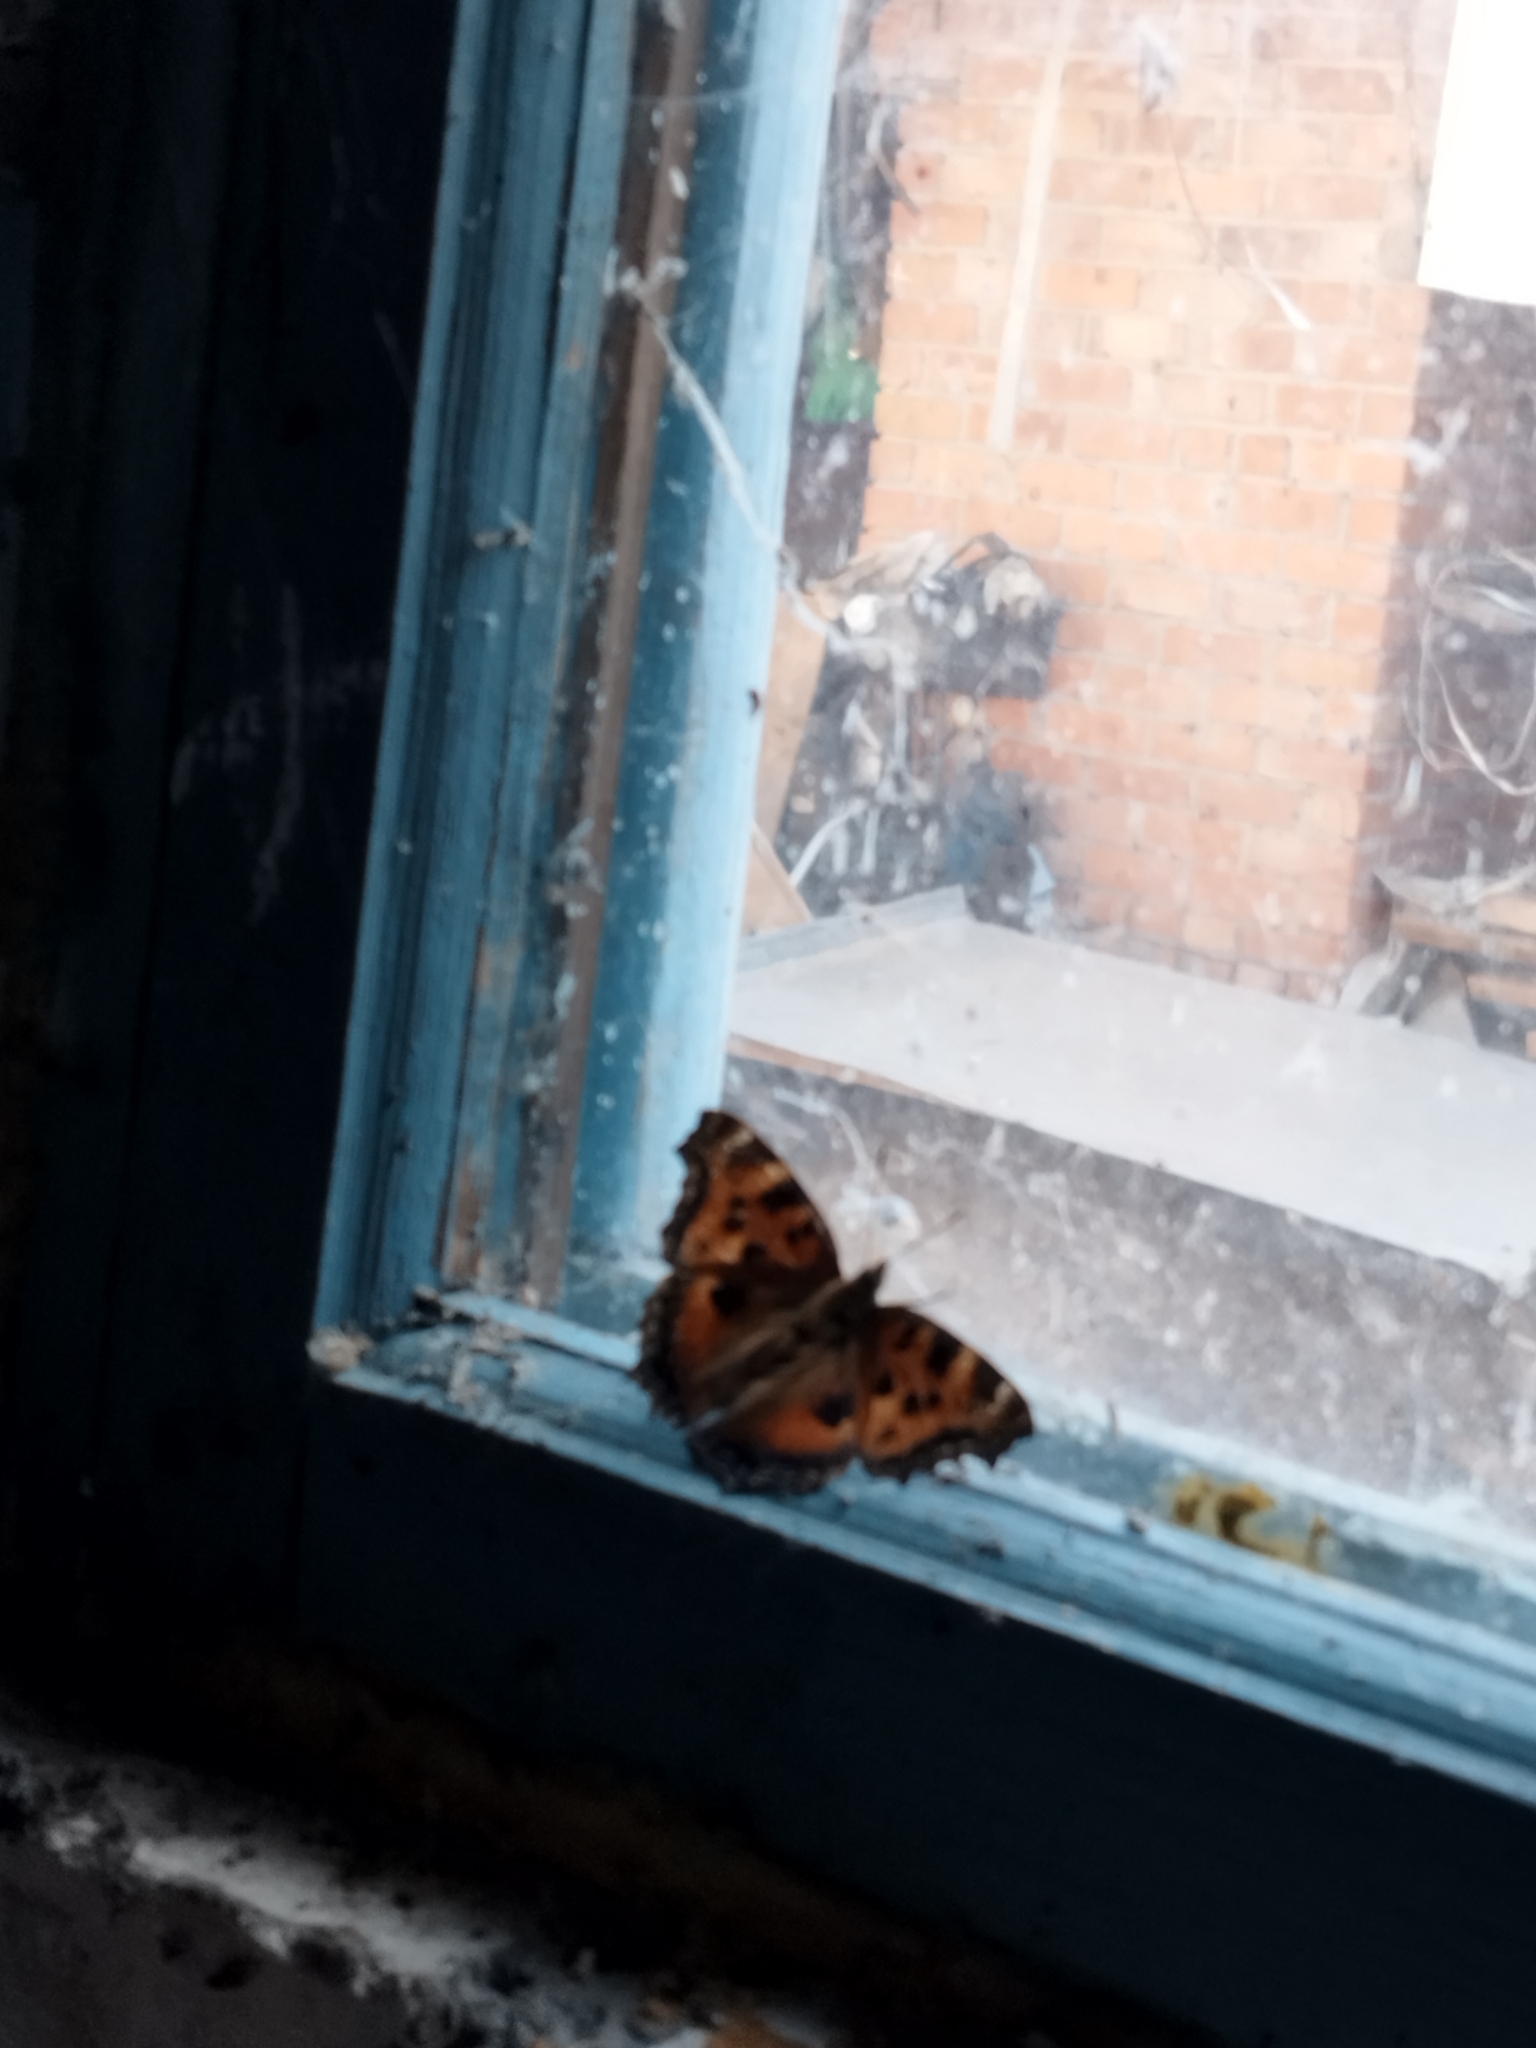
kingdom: Animalia
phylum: Arthropoda
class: Insecta
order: Lepidoptera
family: Nymphalidae
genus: Nymphalis
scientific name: Nymphalis xanthomelas
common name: Scarce tortoiseshell
